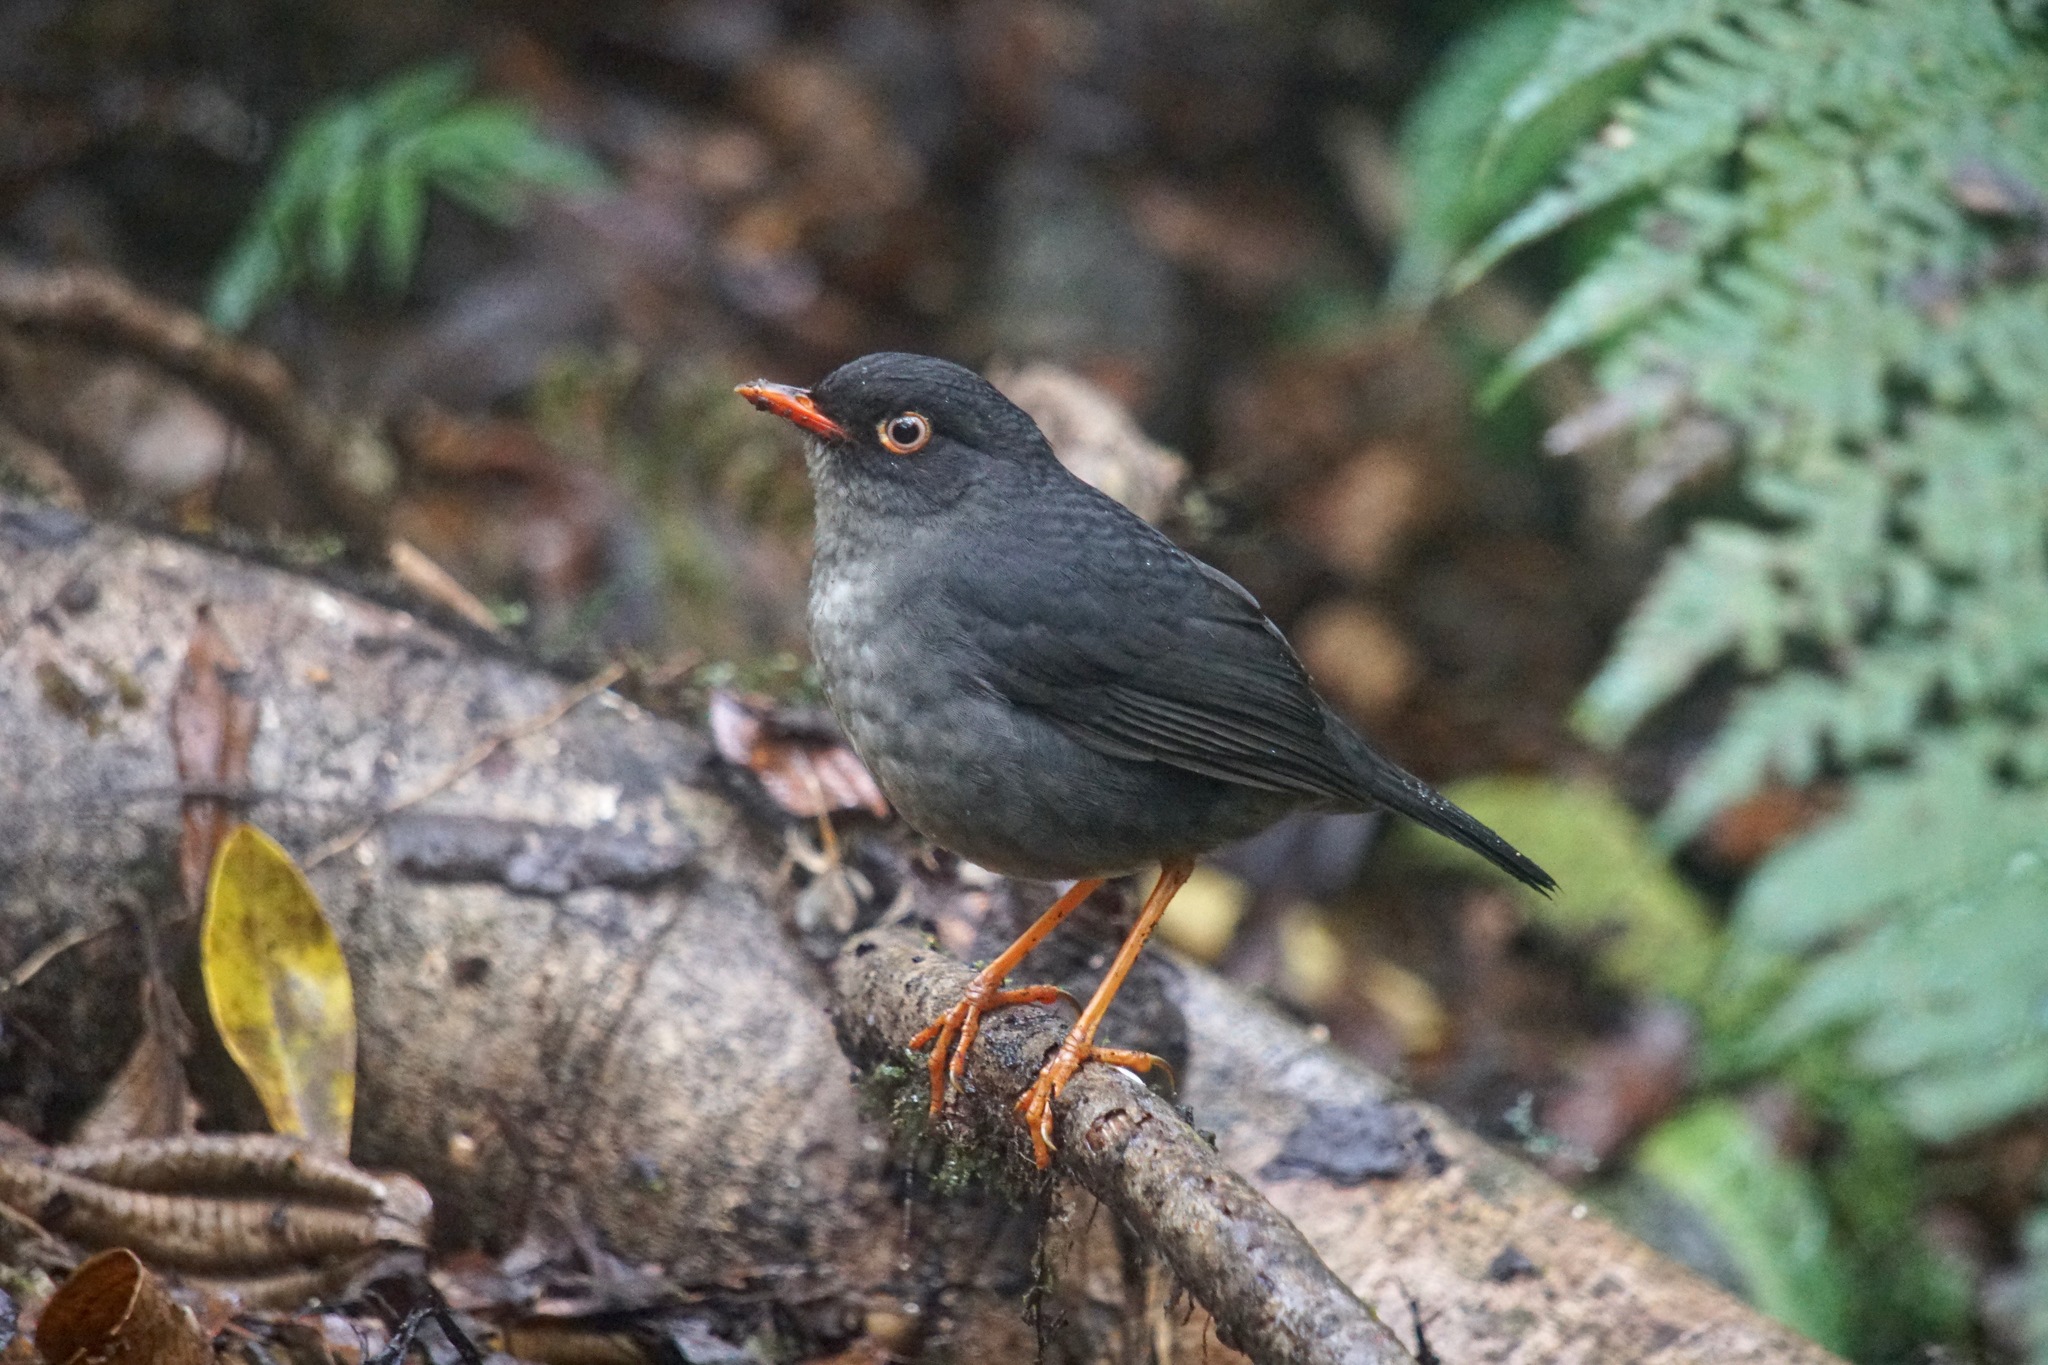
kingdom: Animalia
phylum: Chordata
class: Aves
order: Passeriformes
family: Turdidae
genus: Catharus
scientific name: Catharus fuscater
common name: Slaty-backed nightingale-thrush
